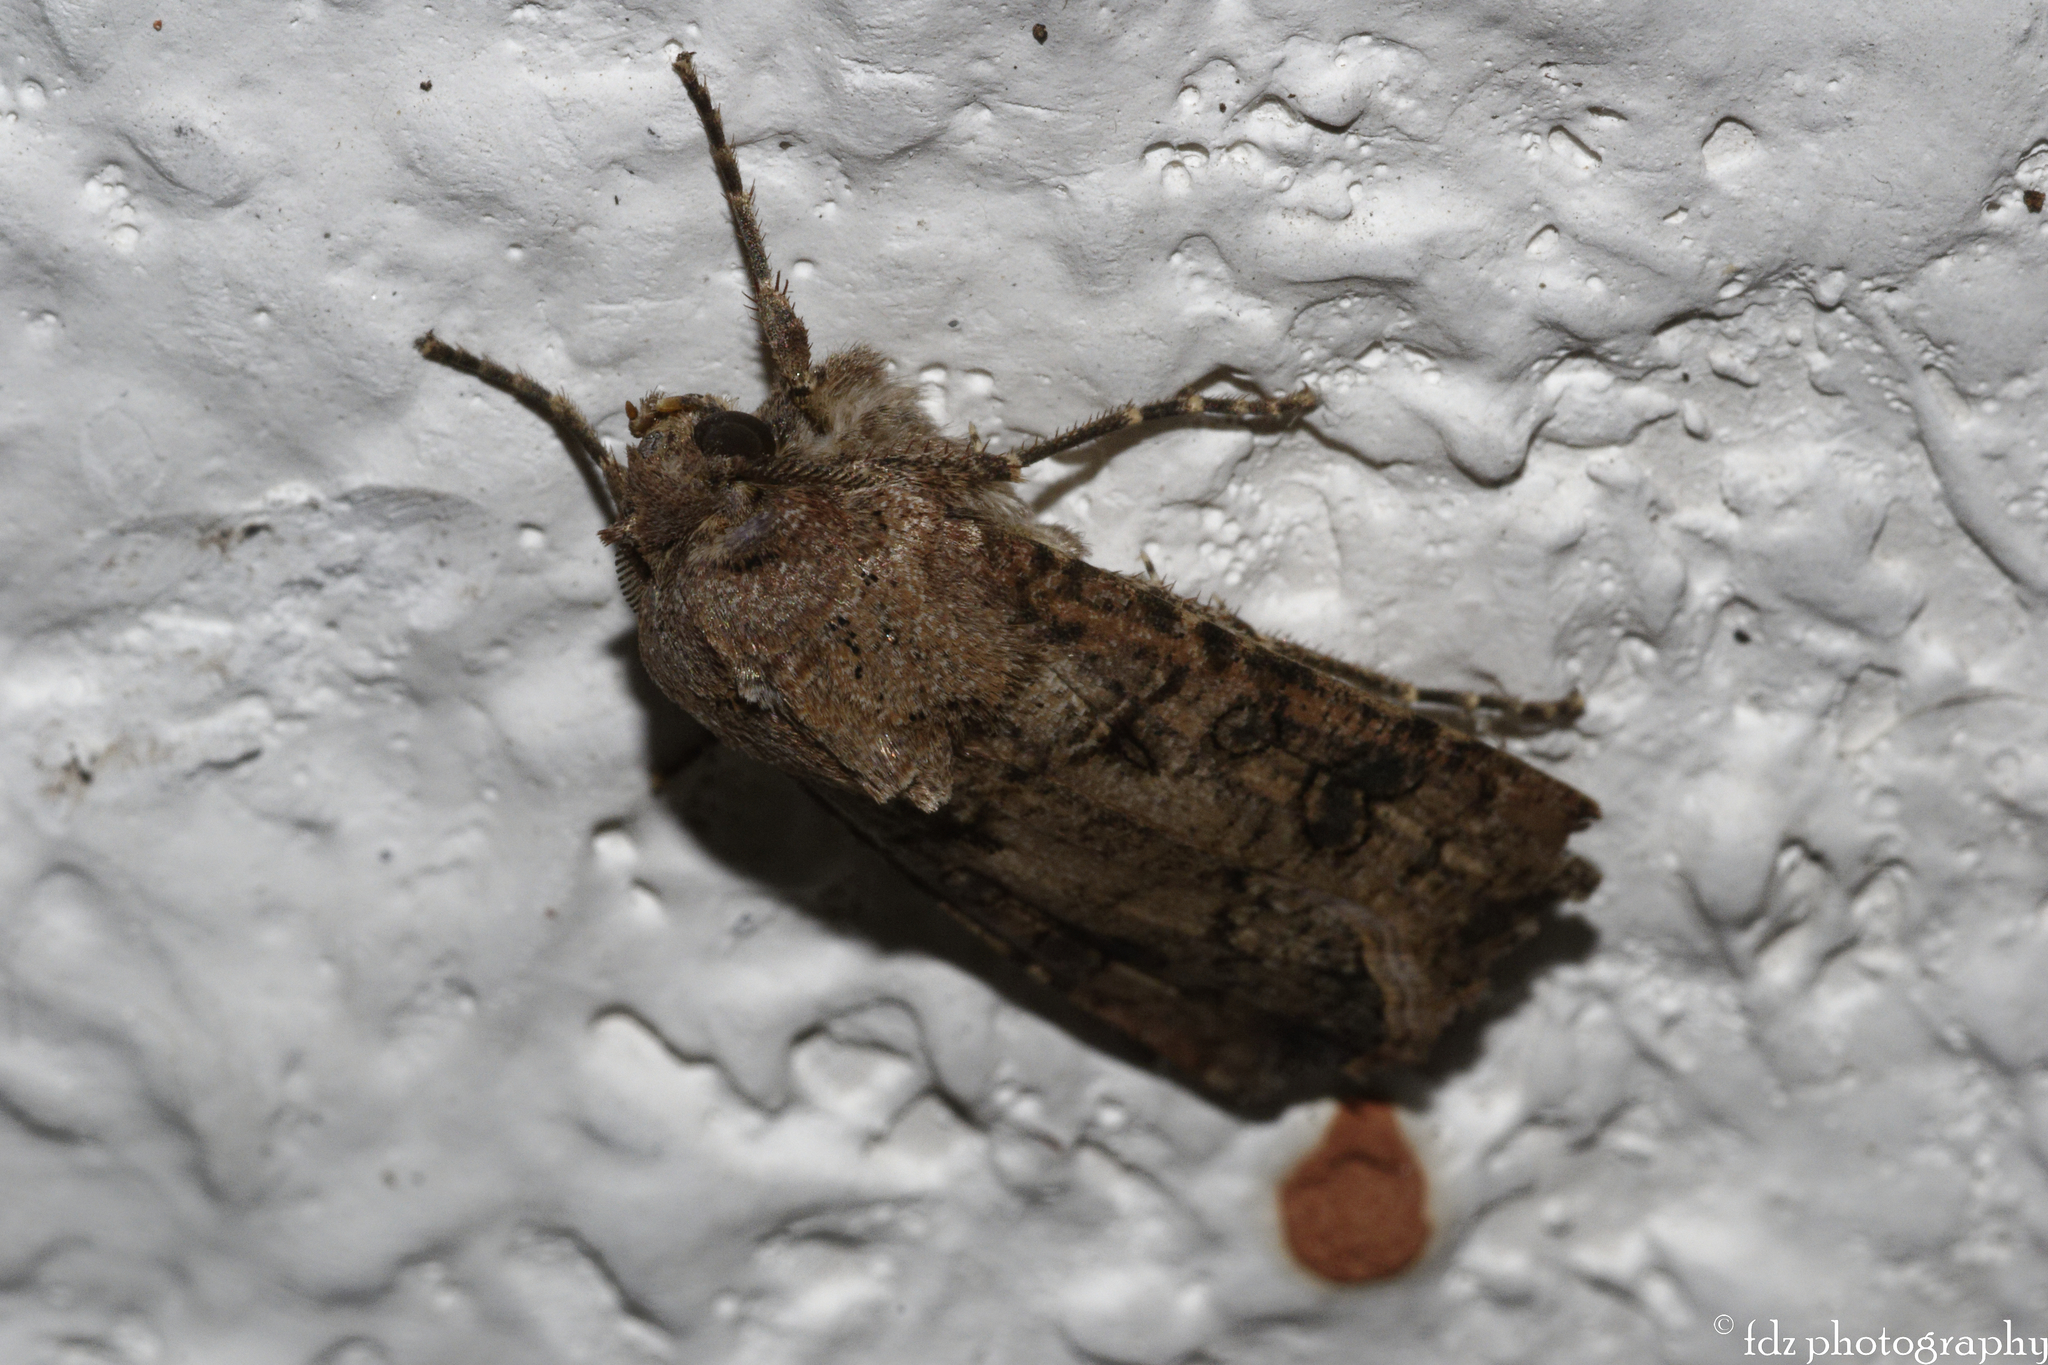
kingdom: Animalia
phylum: Arthropoda
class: Insecta
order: Lepidoptera
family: Noctuidae
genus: Agrotis
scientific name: Agrotis segetum
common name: Turnip moth
